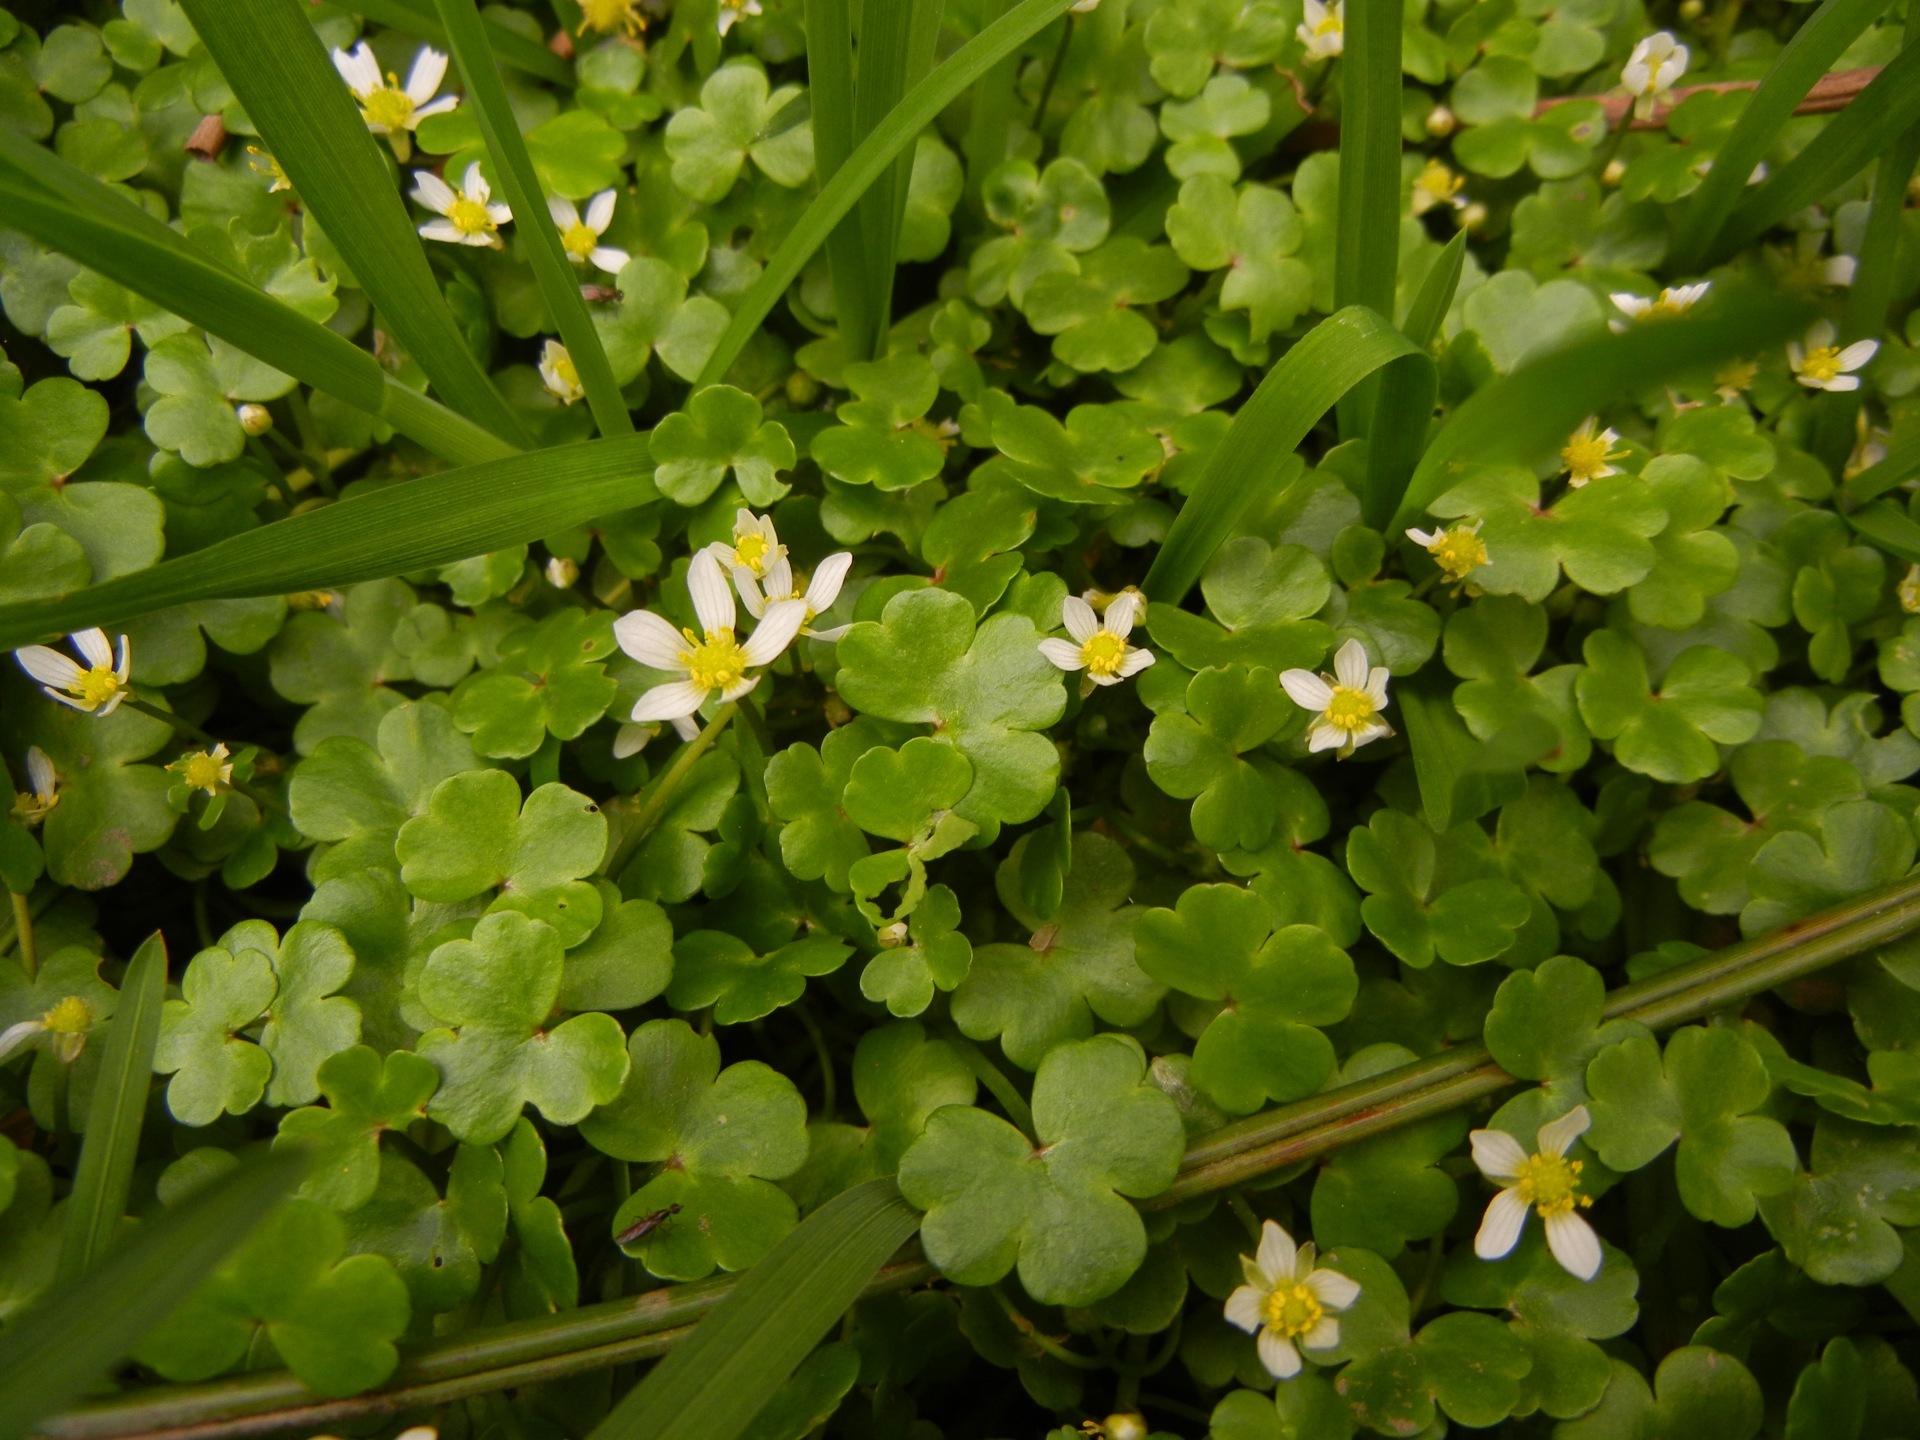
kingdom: Plantae
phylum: Tracheophyta
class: Magnoliopsida
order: Ranunculales
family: Ranunculaceae
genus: Ranunculus
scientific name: Ranunculus omiophyllus
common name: Round-leaved crowfoot
